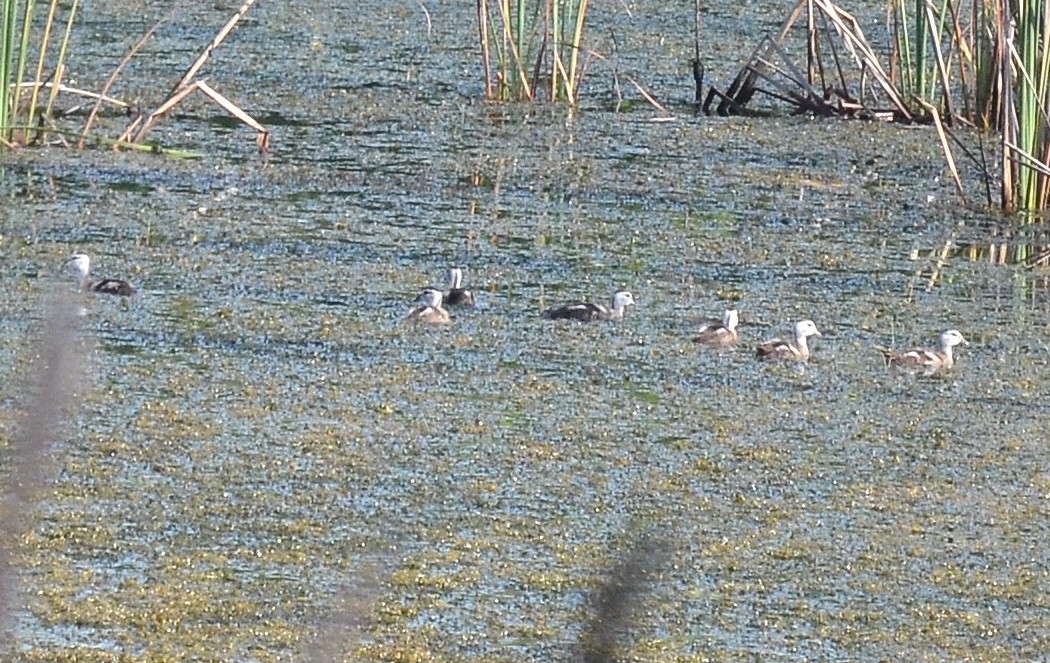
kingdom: Animalia
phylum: Chordata
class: Aves
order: Anseriformes
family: Anatidae
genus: Nettapus
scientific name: Nettapus coromandelianus
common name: Cotton pygmy-goose
